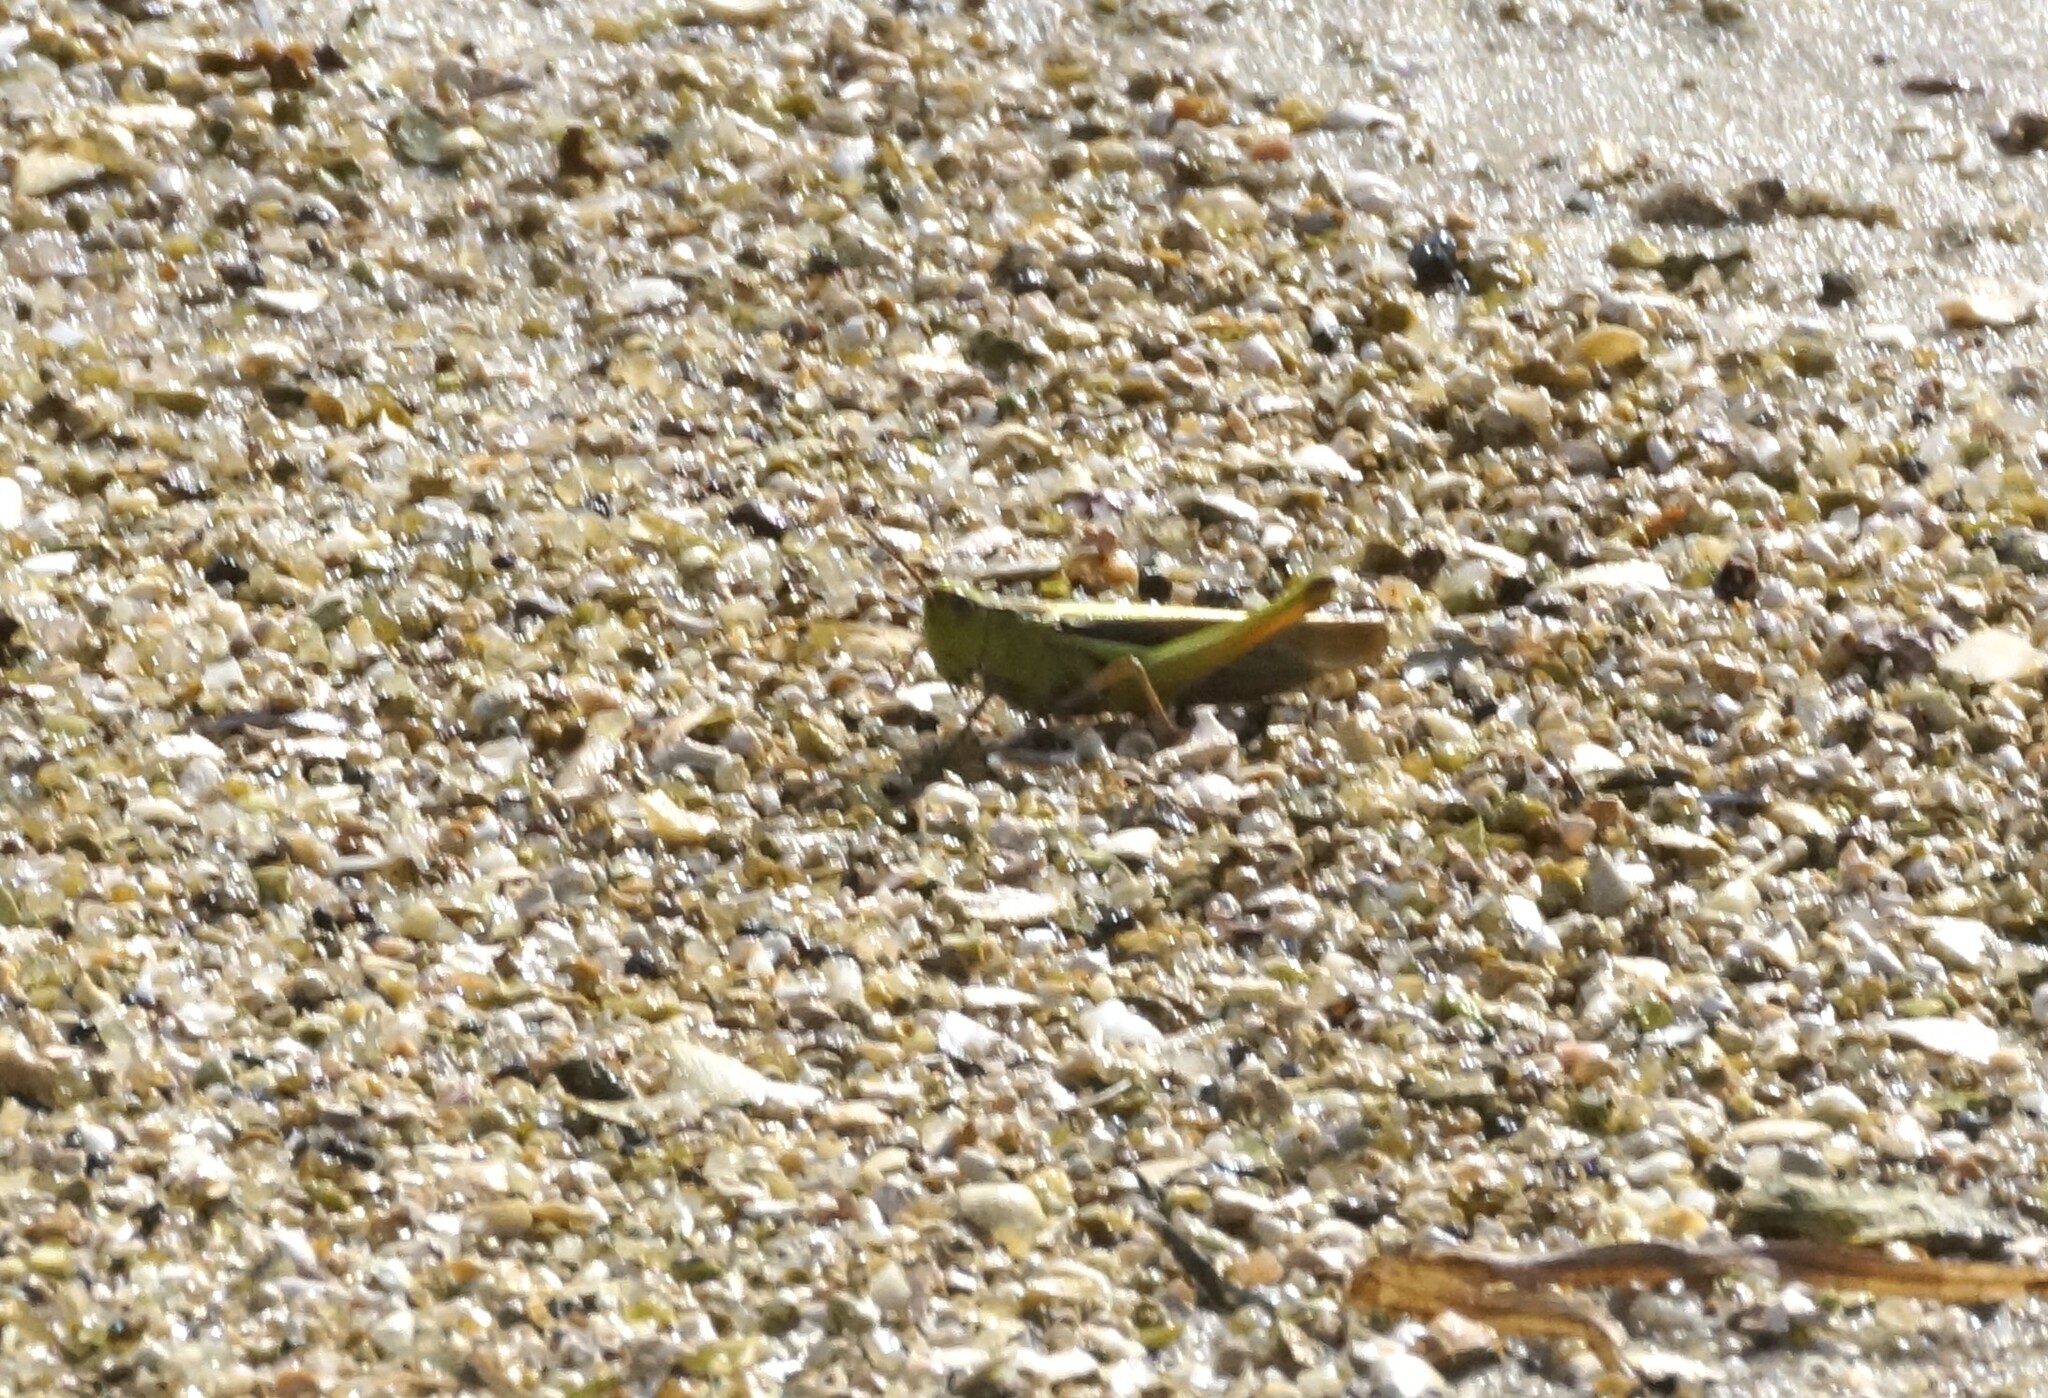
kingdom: Animalia
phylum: Arthropoda
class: Insecta
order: Orthoptera
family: Acrididae
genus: Schizobothrus
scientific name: Schizobothrus flavovittatus
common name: Disappearing grasshopper
